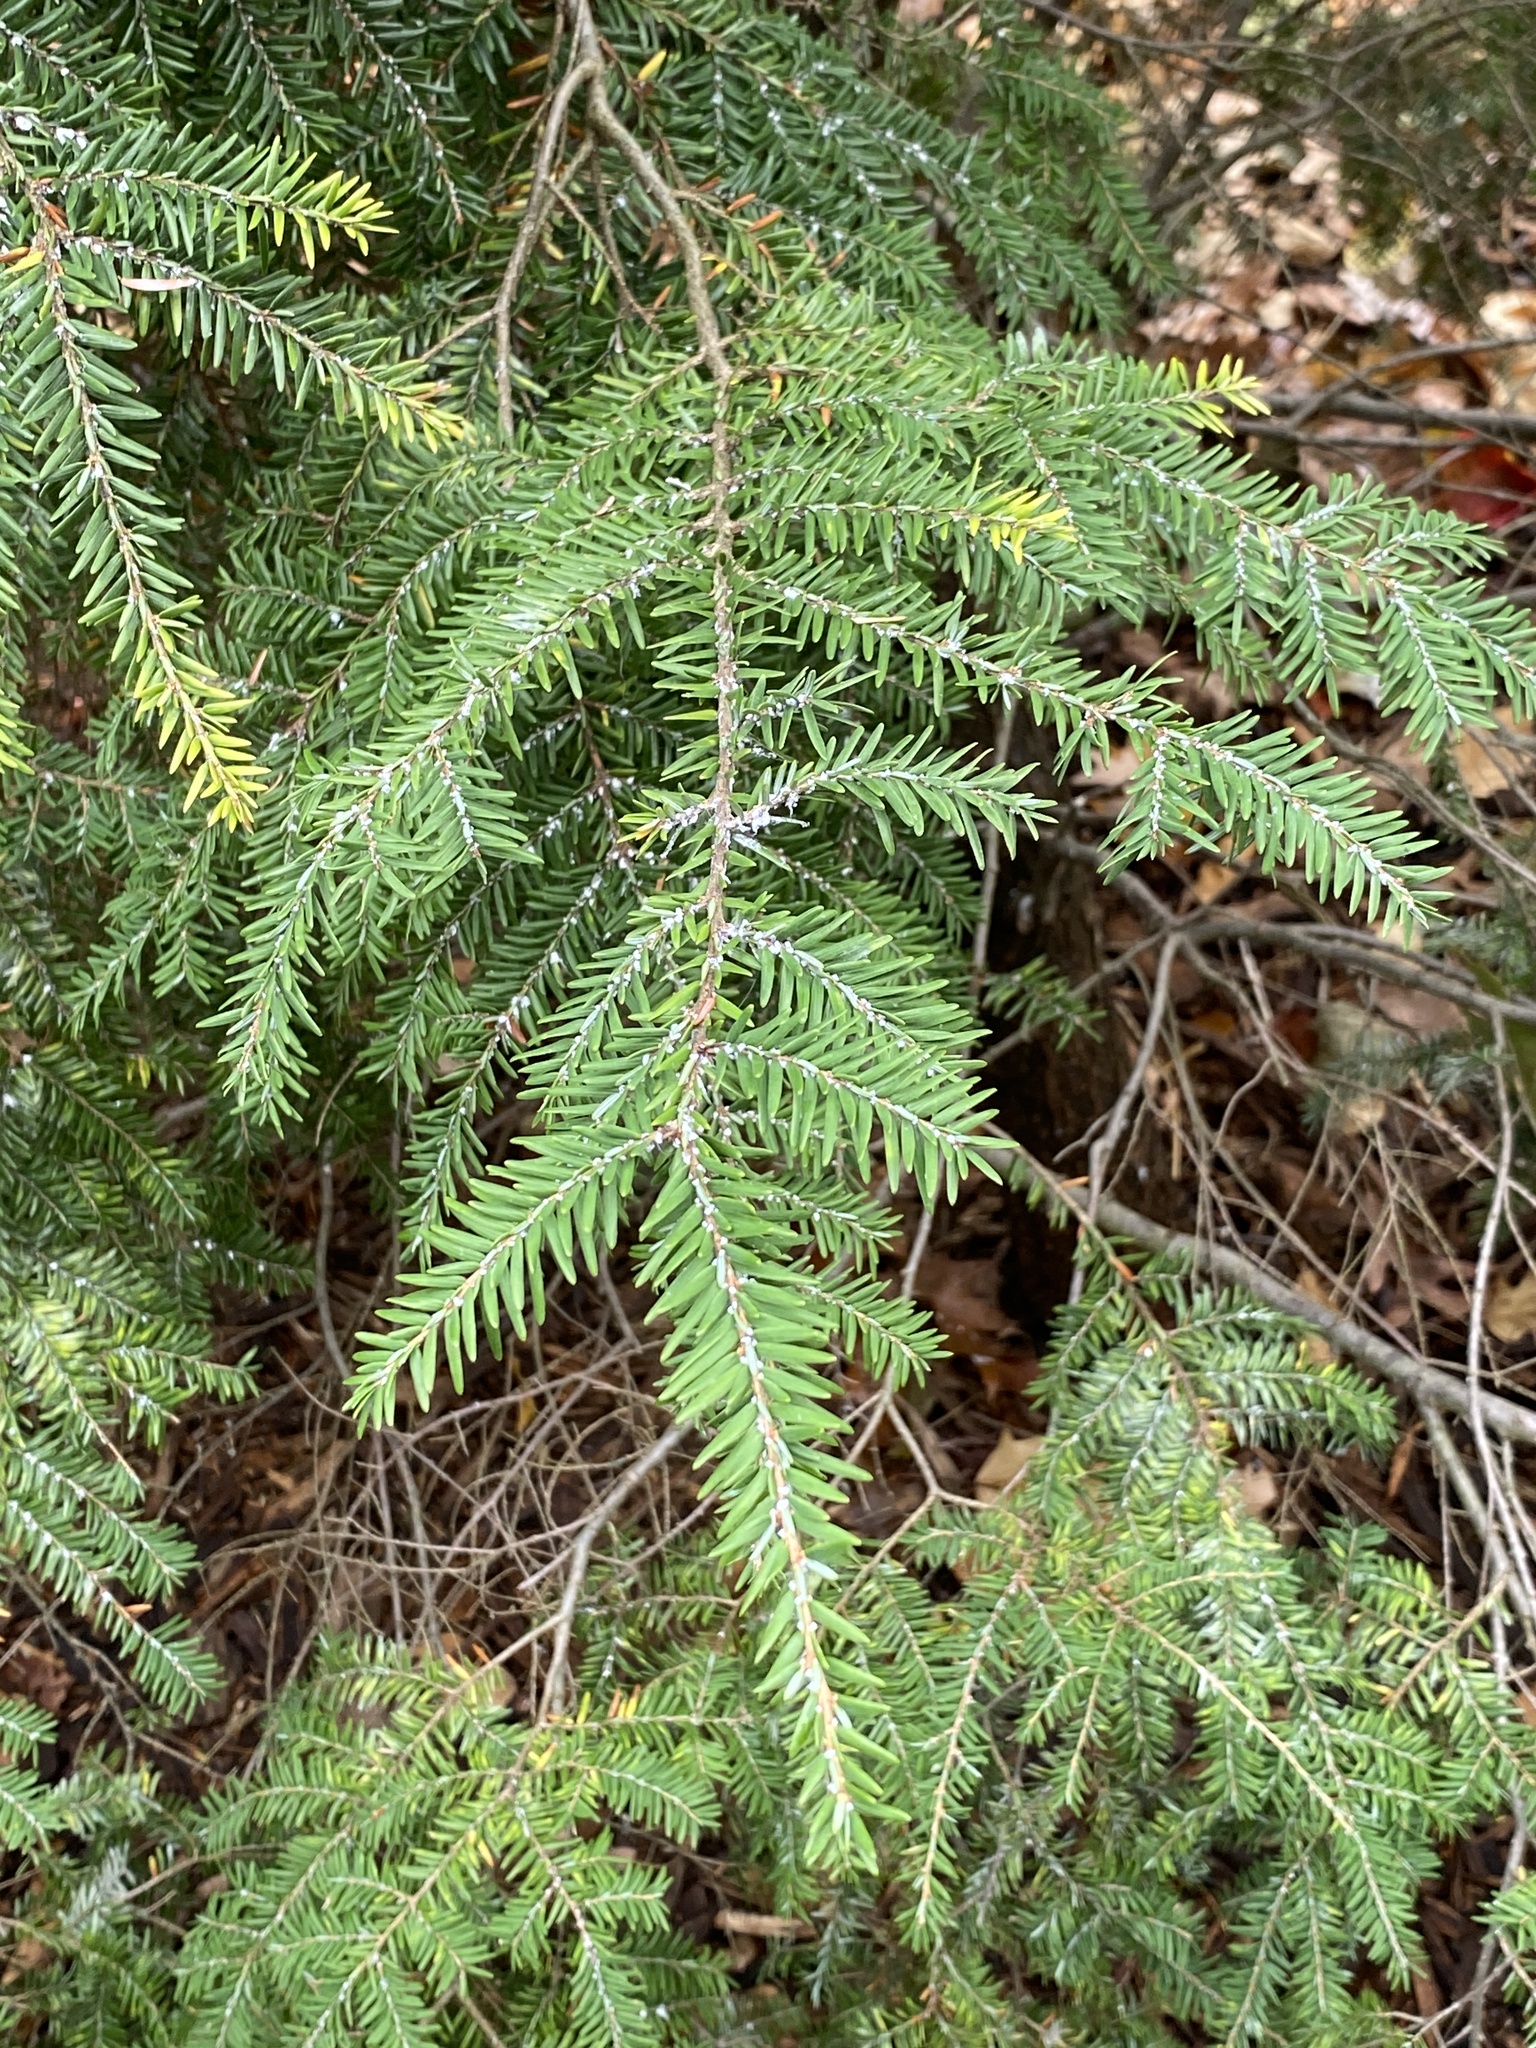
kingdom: Animalia
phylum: Arthropoda
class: Insecta
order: Hemiptera
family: Adelgidae
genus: Adelges
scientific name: Adelges tsugae
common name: Hemlock woolly adelgid
